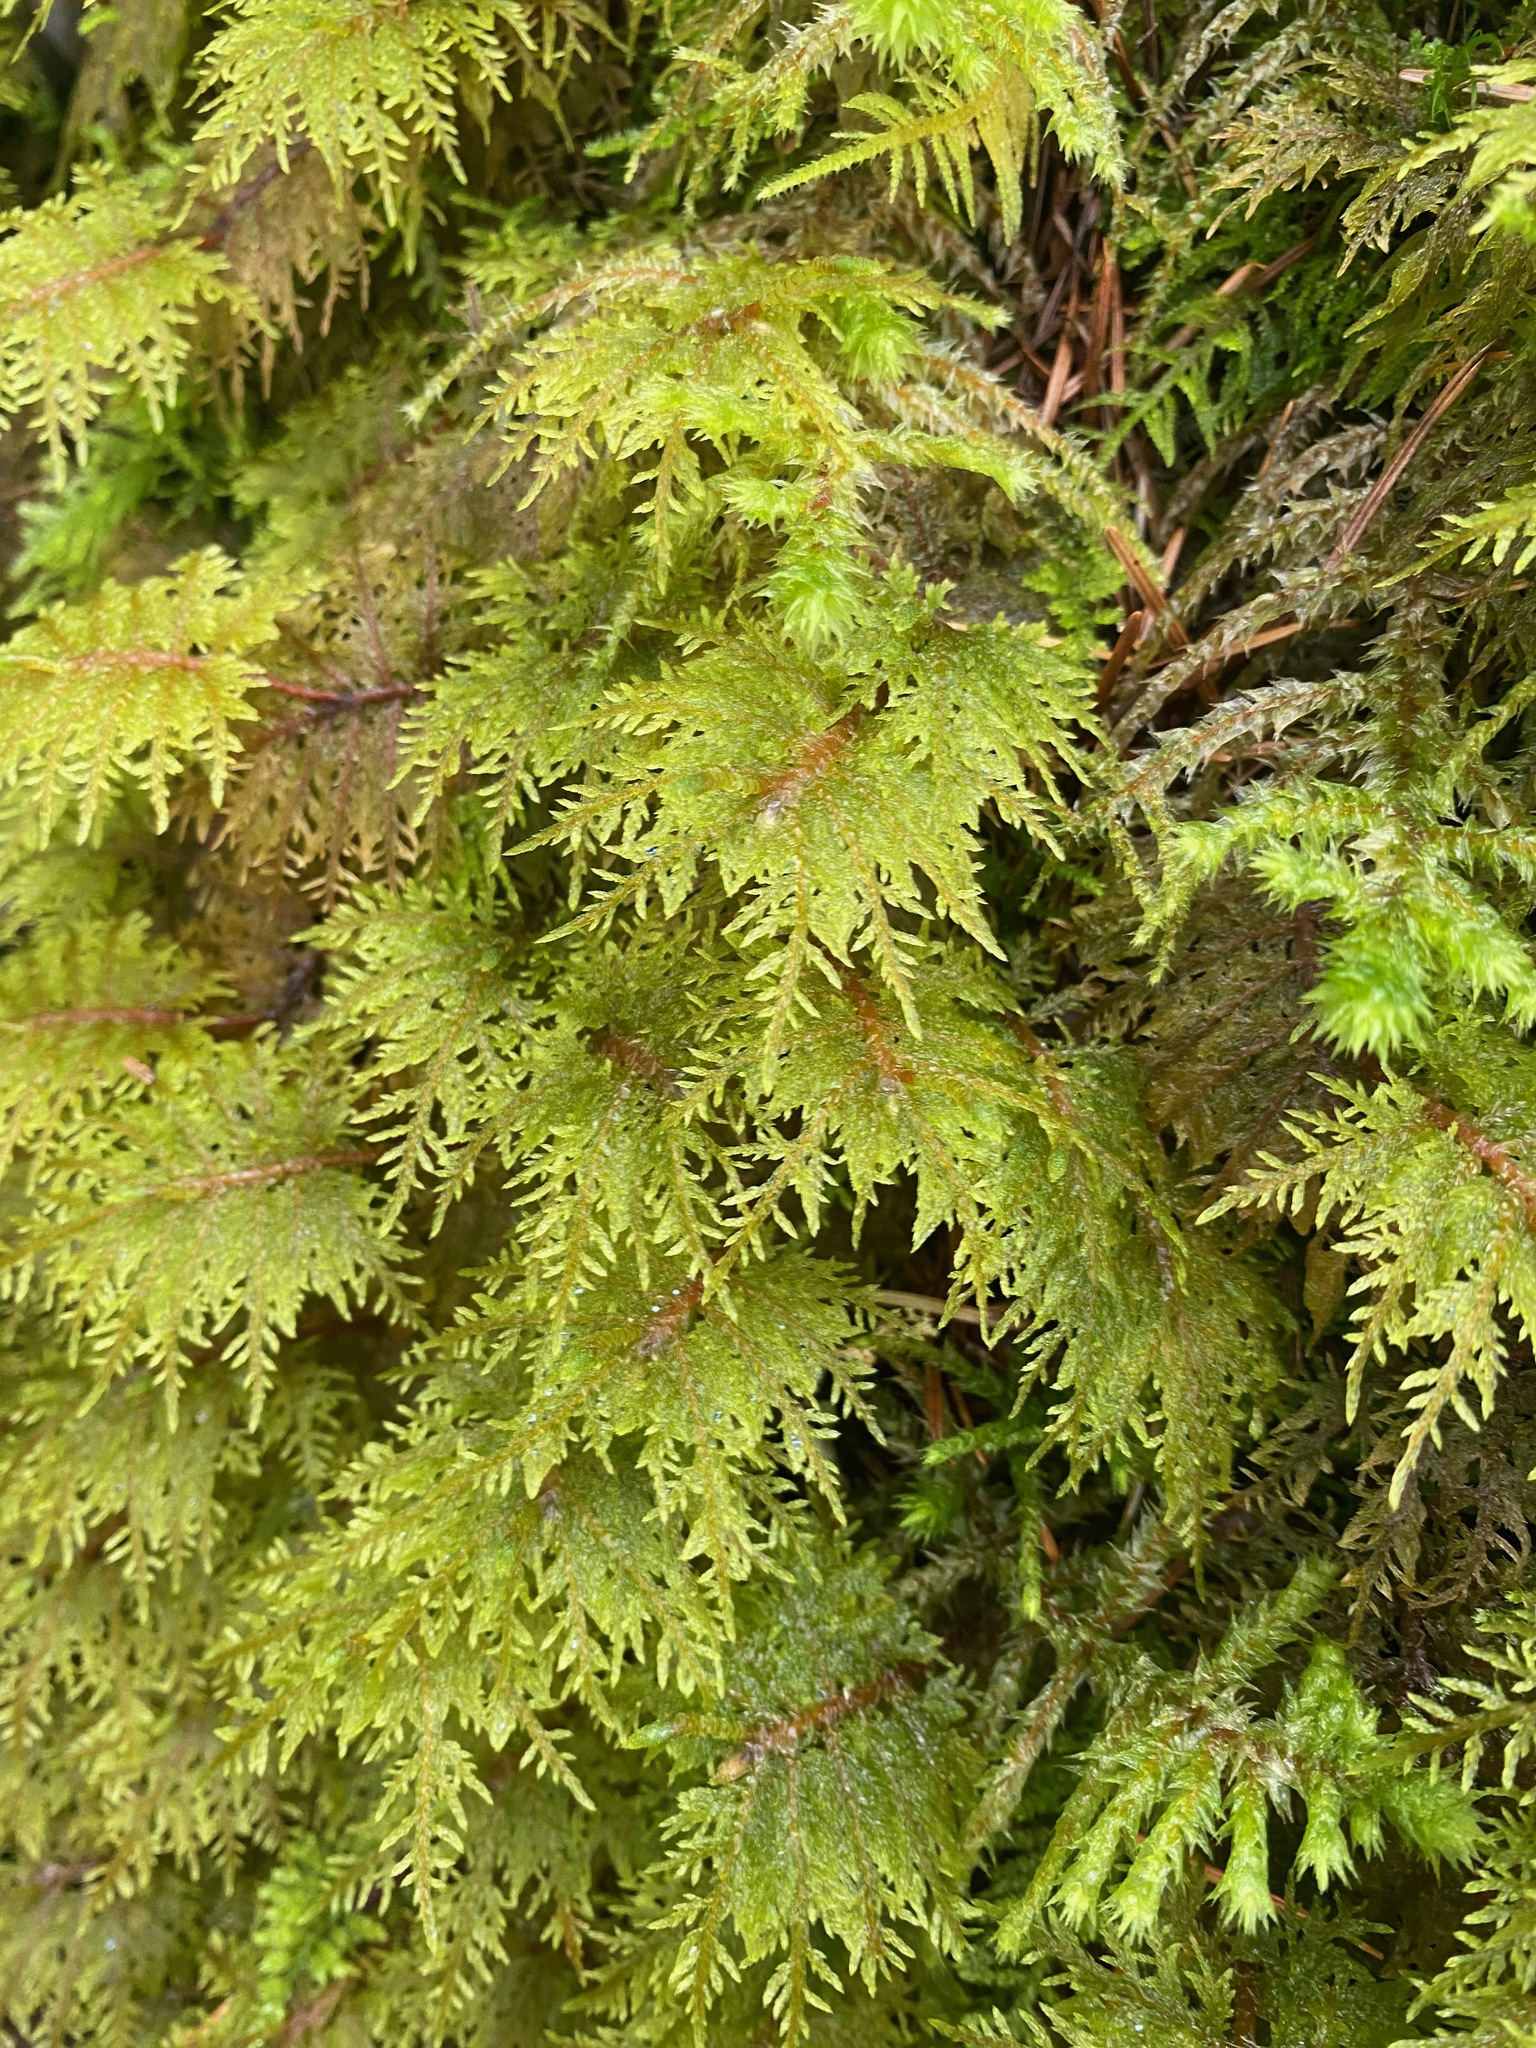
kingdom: Plantae
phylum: Bryophyta
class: Bryopsida
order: Hypnales
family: Hylocomiaceae
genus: Hylocomium
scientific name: Hylocomium splendens
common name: Stairstep moss
